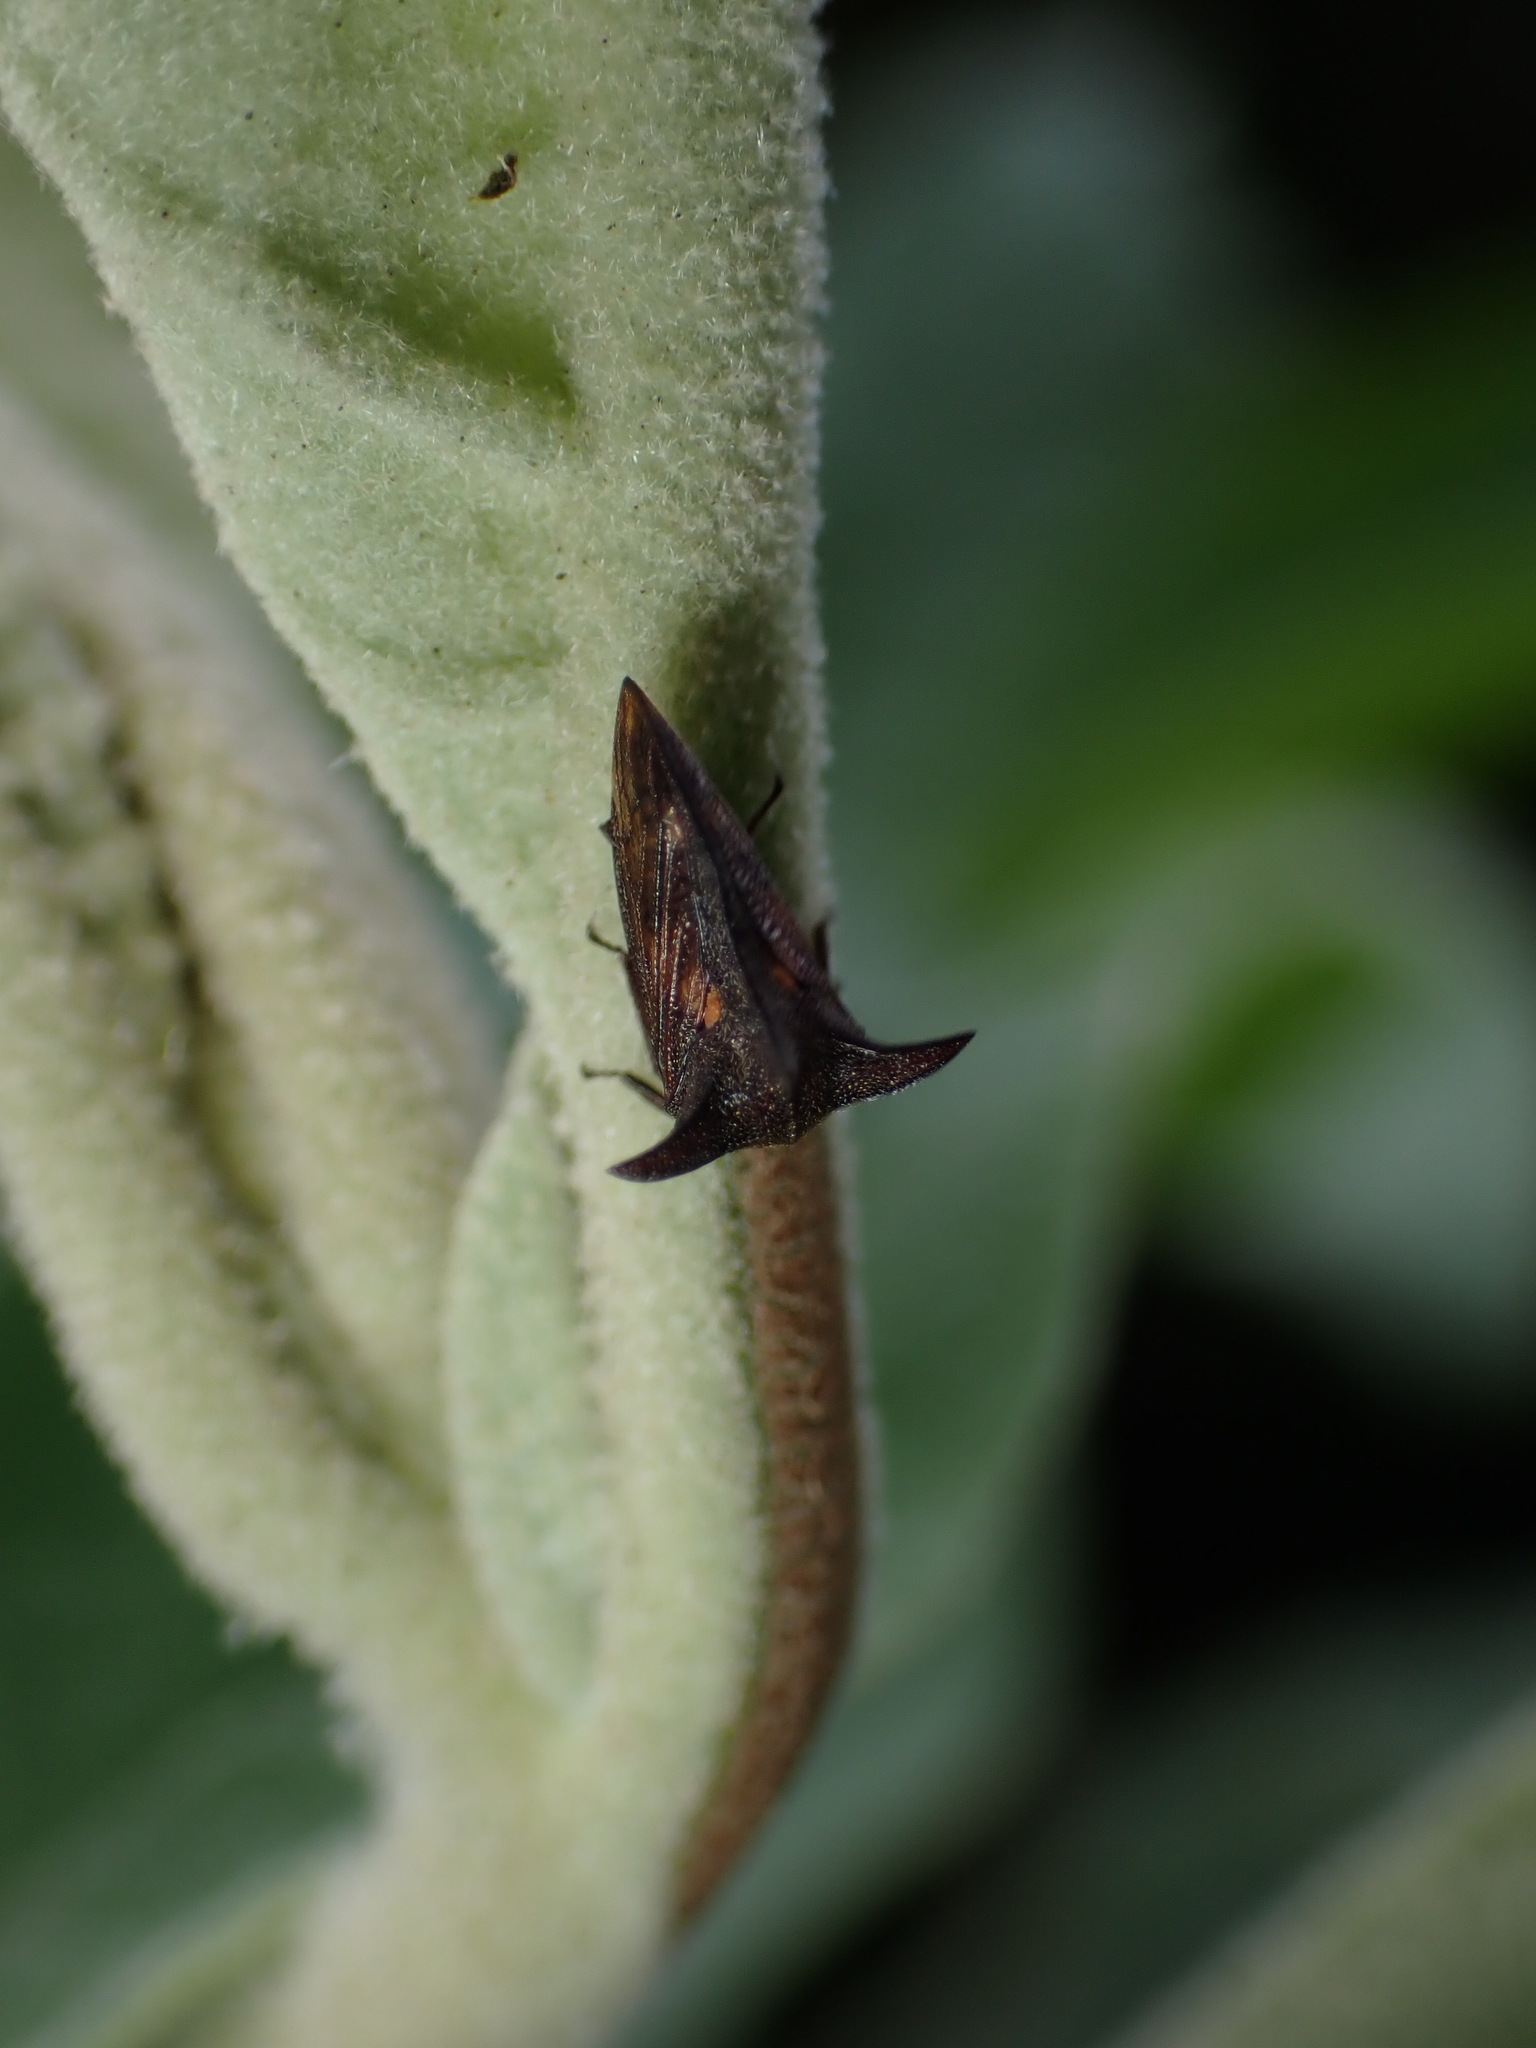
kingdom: Animalia
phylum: Arthropoda
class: Insecta
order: Hemiptera
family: Membracidae
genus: Acanthuchus
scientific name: Acanthuchus trispinifer
